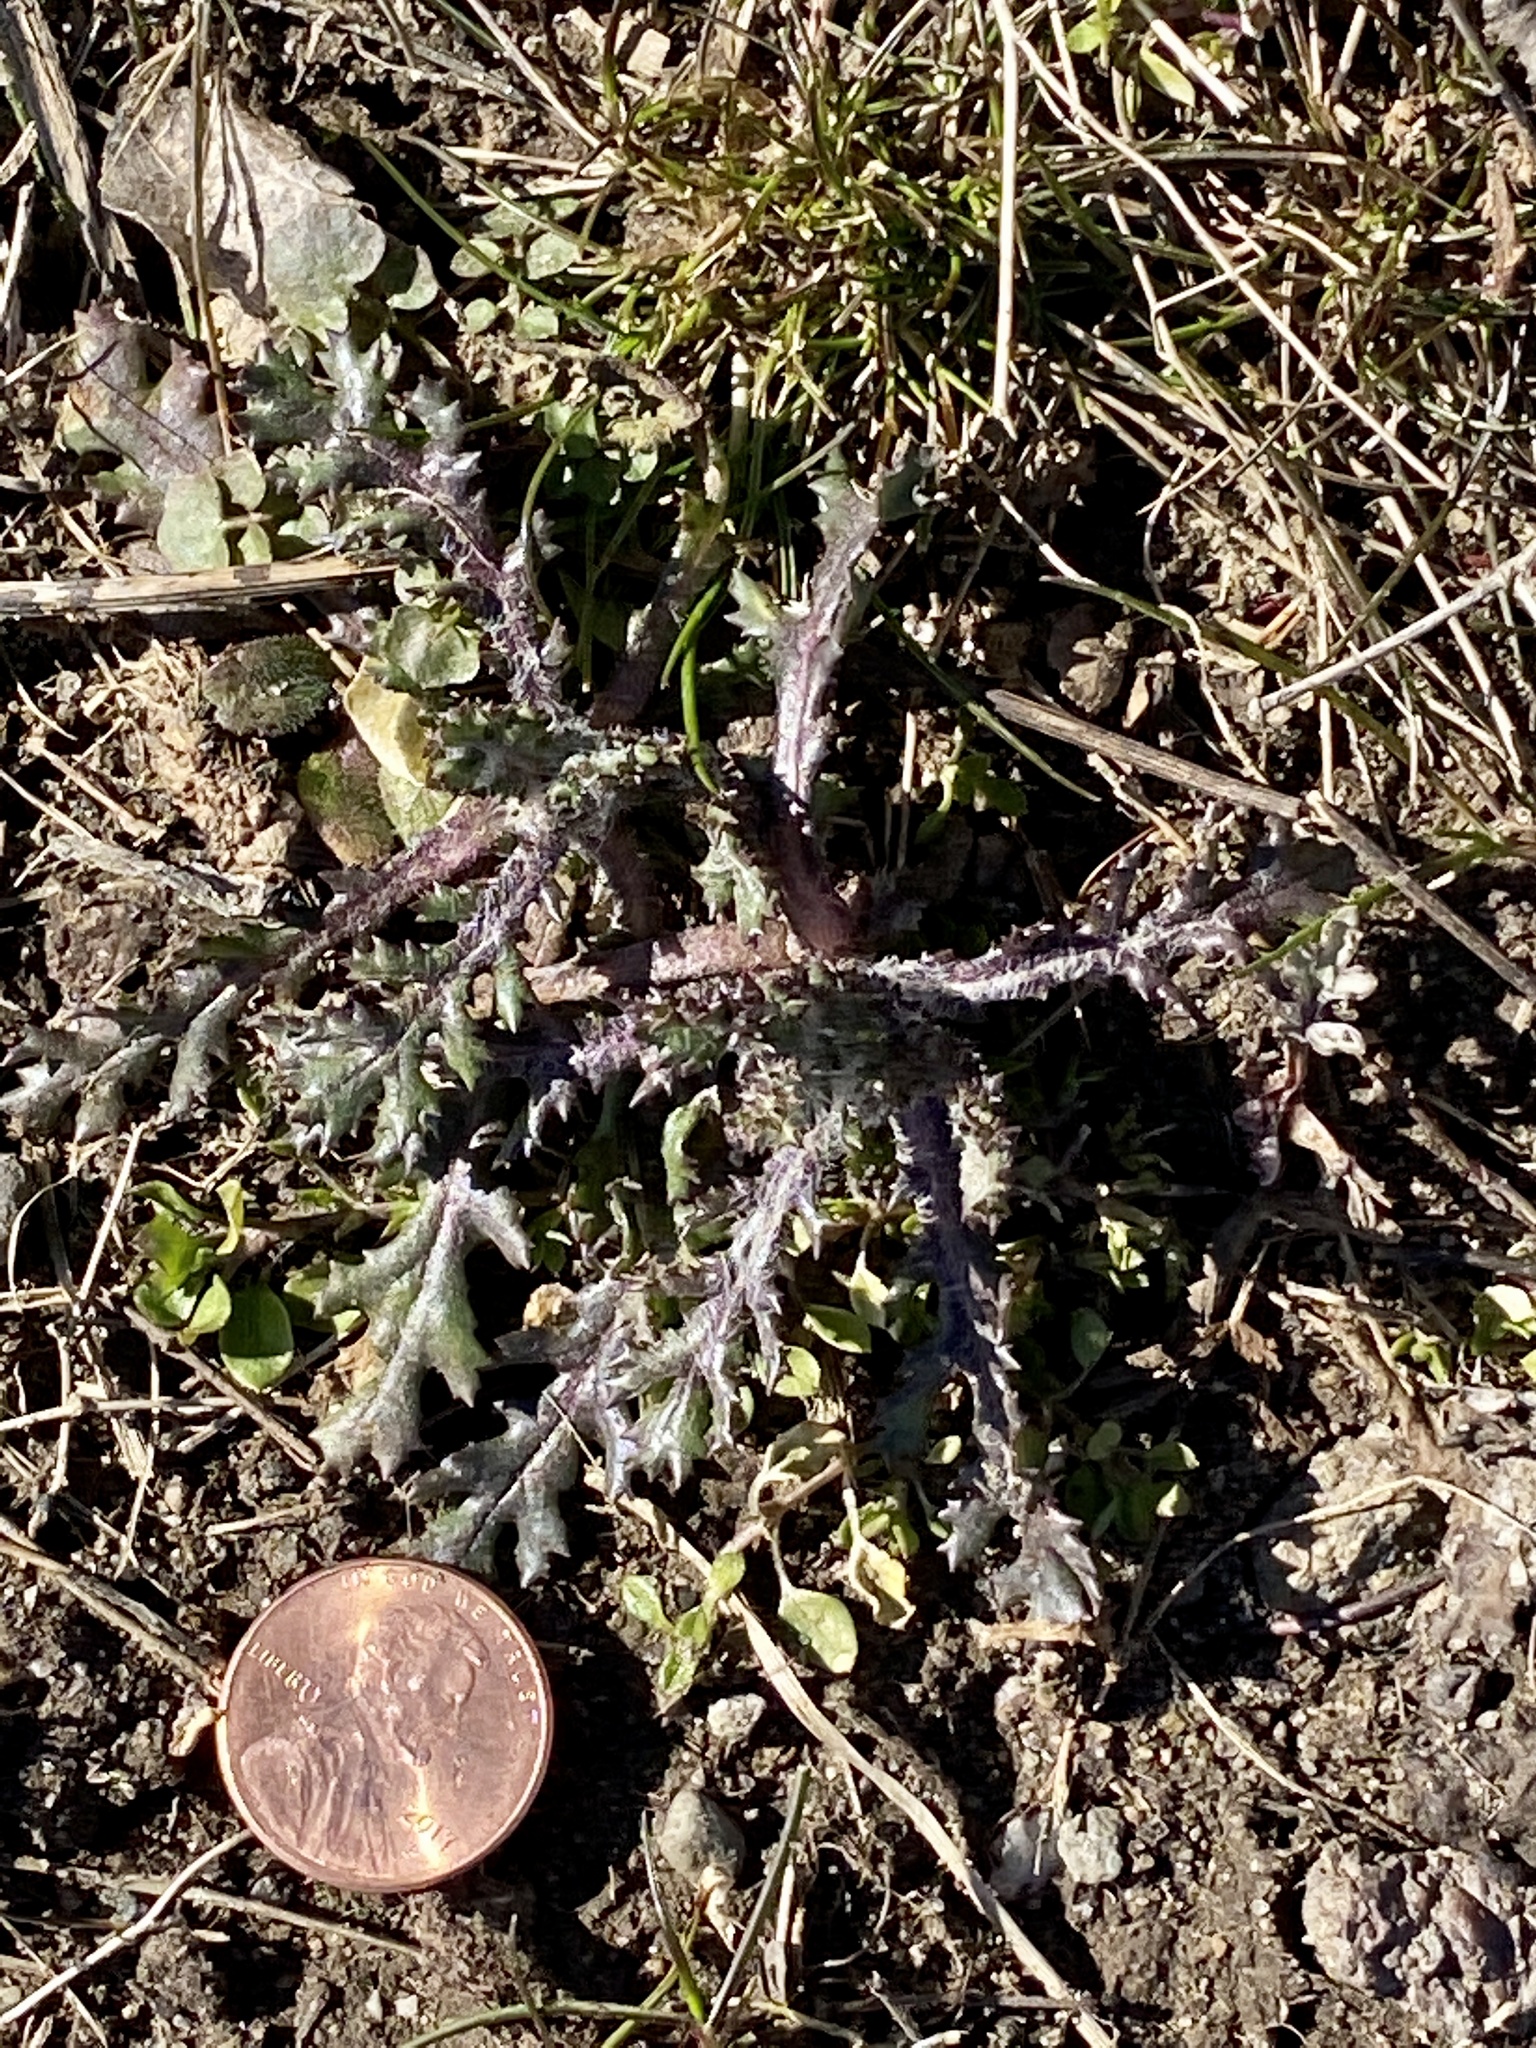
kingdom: Plantae
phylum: Tracheophyta
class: Magnoliopsida
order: Asterales
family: Asteraceae
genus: Senecio
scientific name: Senecio vulgaris
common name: Old-man-in-the-spring
